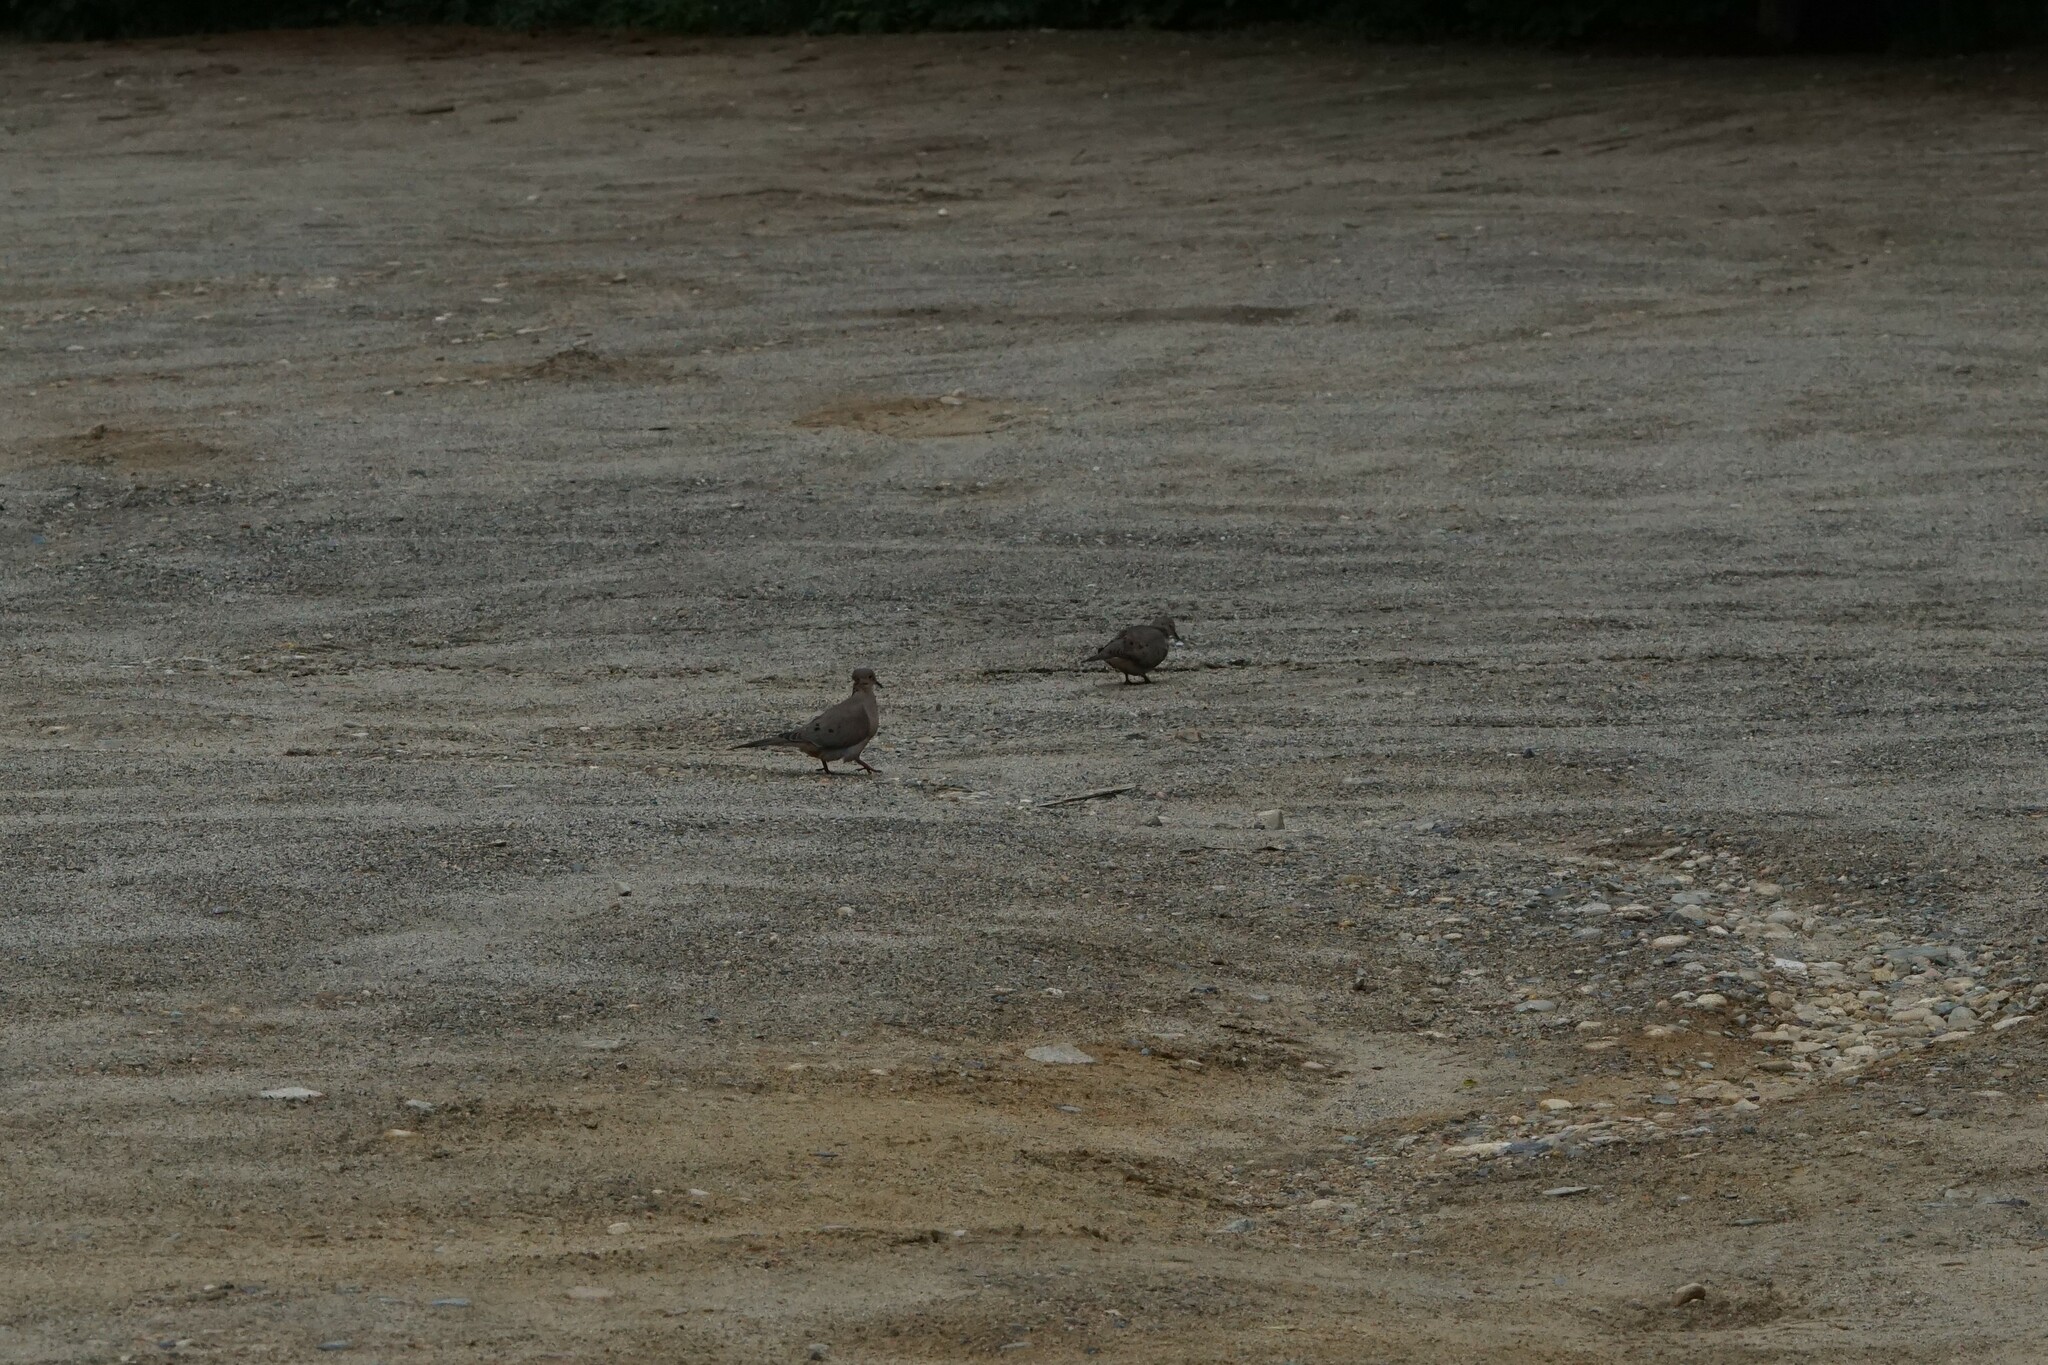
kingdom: Animalia
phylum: Chordata
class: Aves
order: Columbiformes
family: Columbidae
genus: Zenaida
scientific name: Zenaida macroura
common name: Mourning dove
